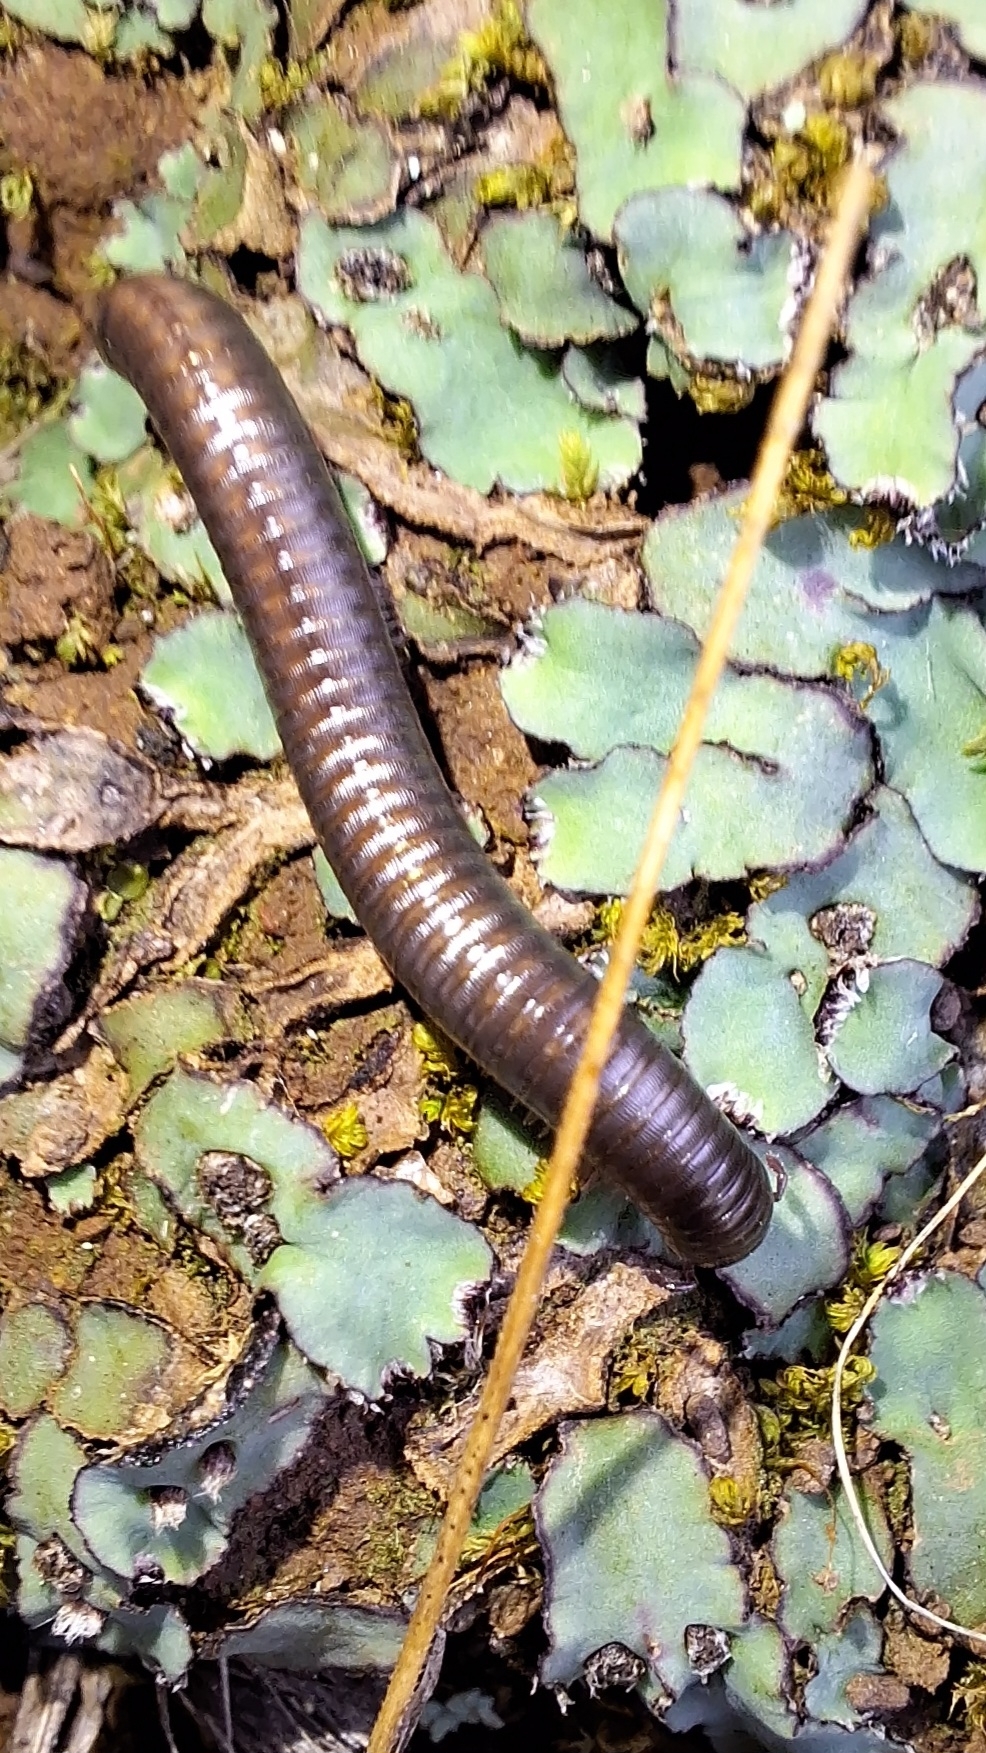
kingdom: Animalia
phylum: Arthropoda
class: Diplopoda
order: Julida
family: Julidae
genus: Ommatoiulus
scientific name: Ommatoiulus moreleti
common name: Portuguese millipede
